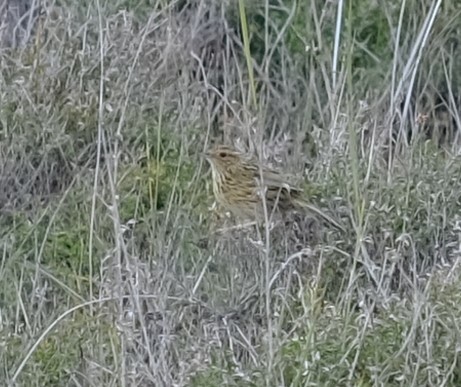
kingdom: Animalia
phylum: Chordata
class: Aves
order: Passeriformes
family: Acanthizidae
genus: Calamanthus
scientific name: Calamanthus fuliginosus
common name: Striated fieldwren
